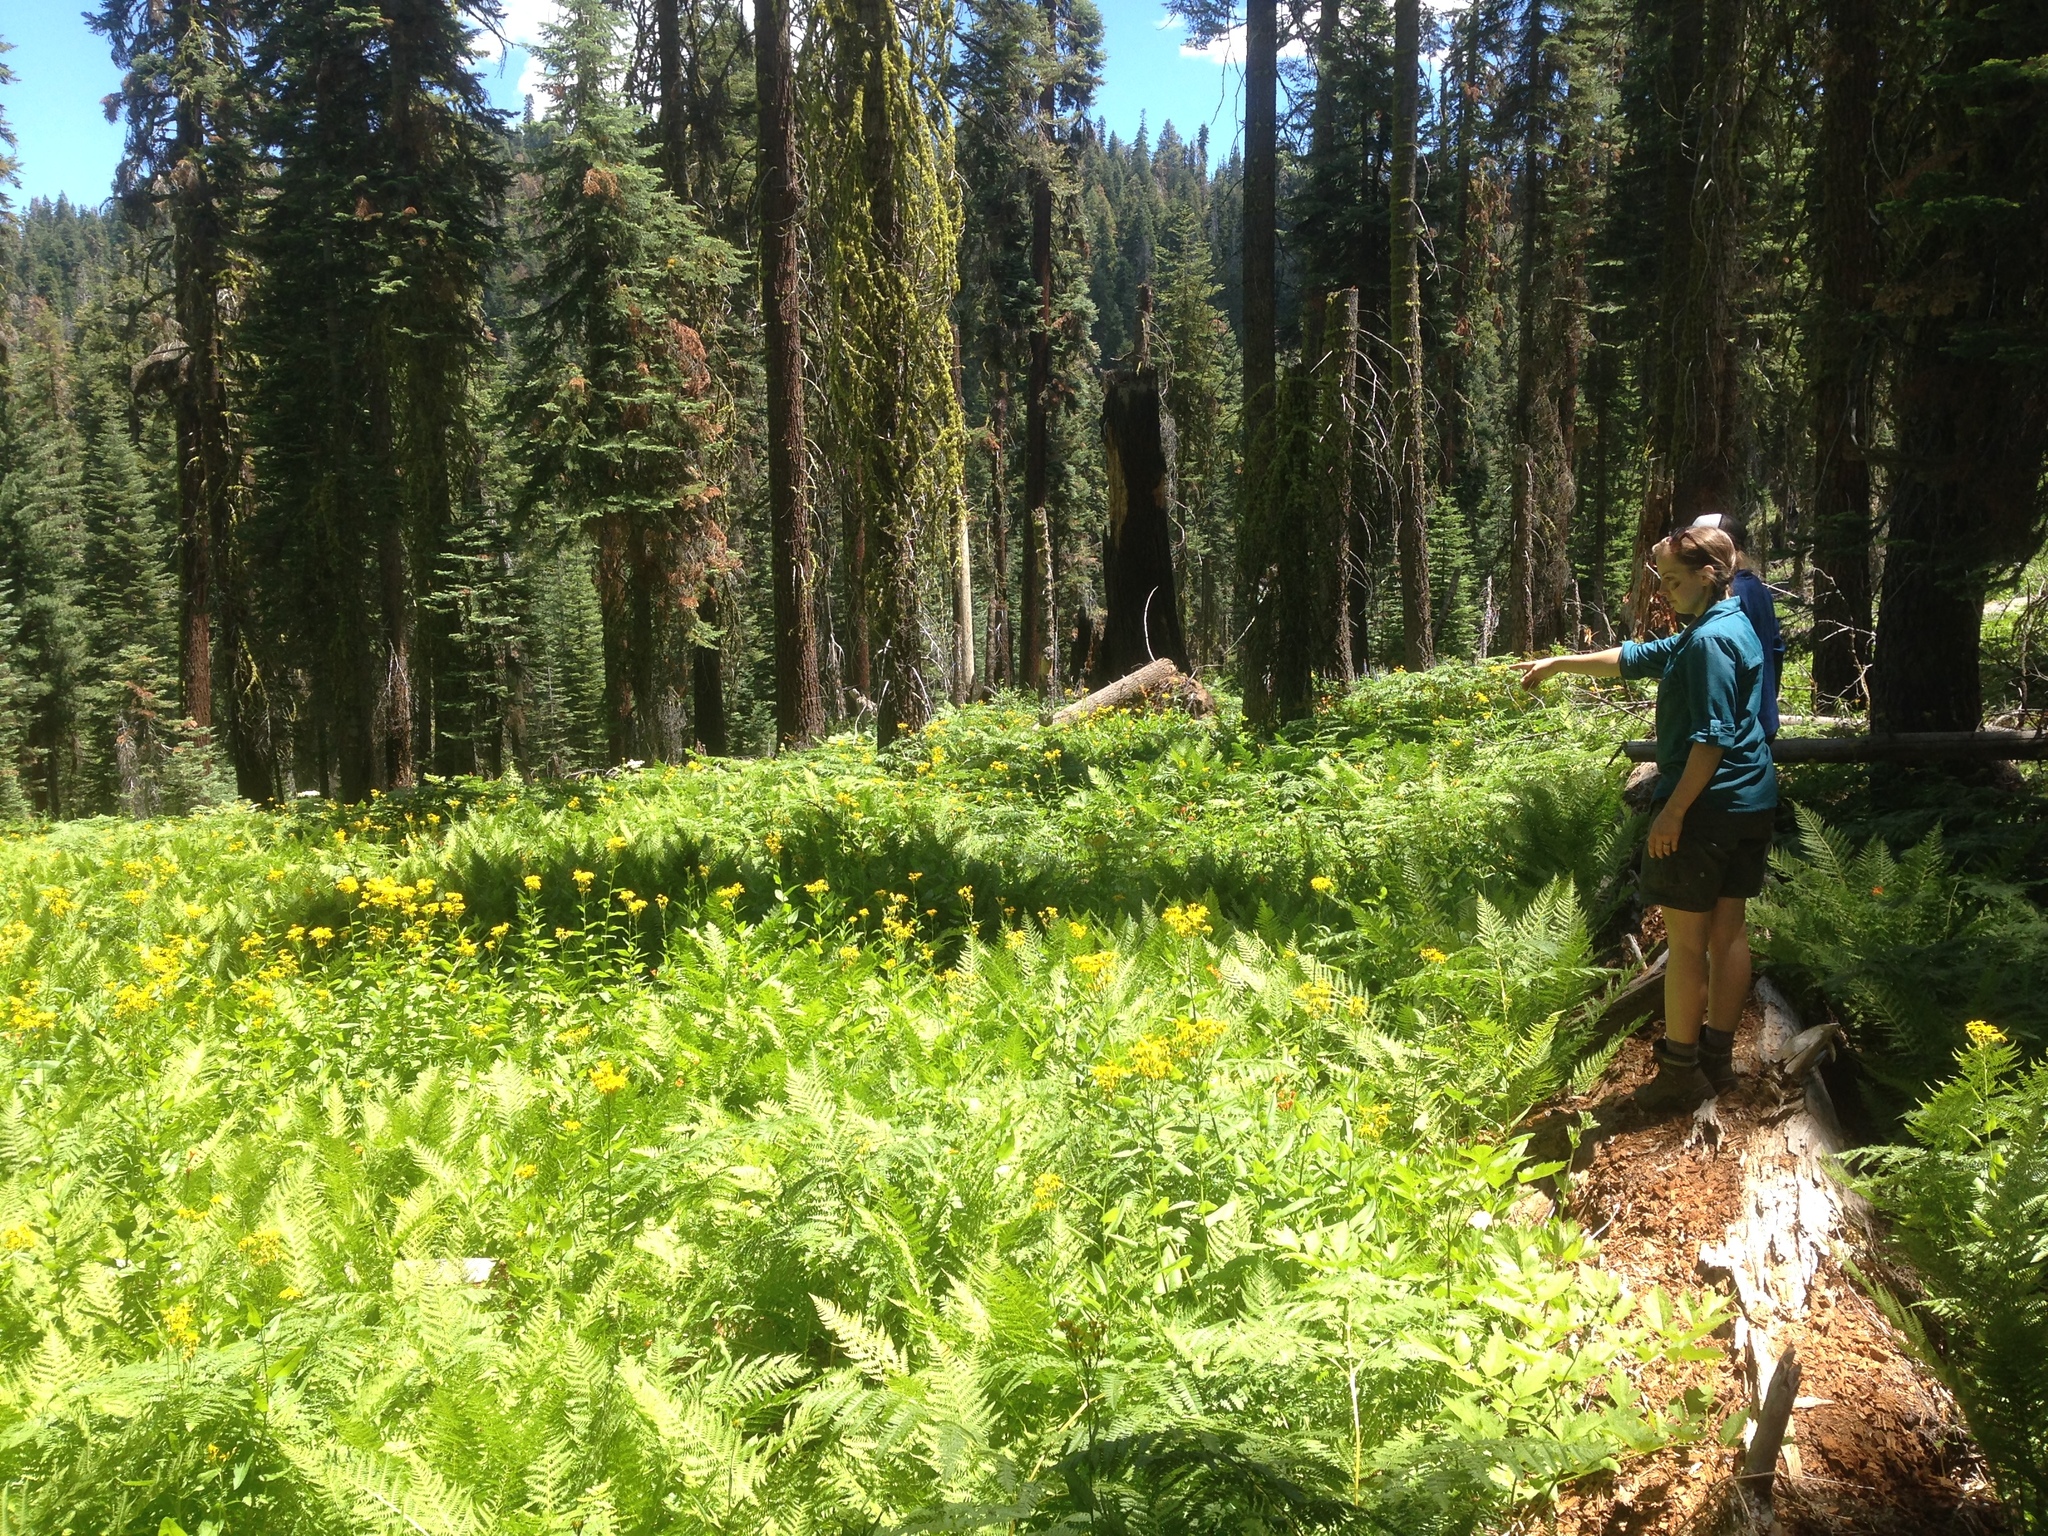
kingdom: Plantae
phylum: Tracheophyta
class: Polypodiopsida
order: Polypodiales
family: Dennstaedtiaceae
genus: Pteridium
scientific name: Pteridium aquilinum
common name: Bracken
